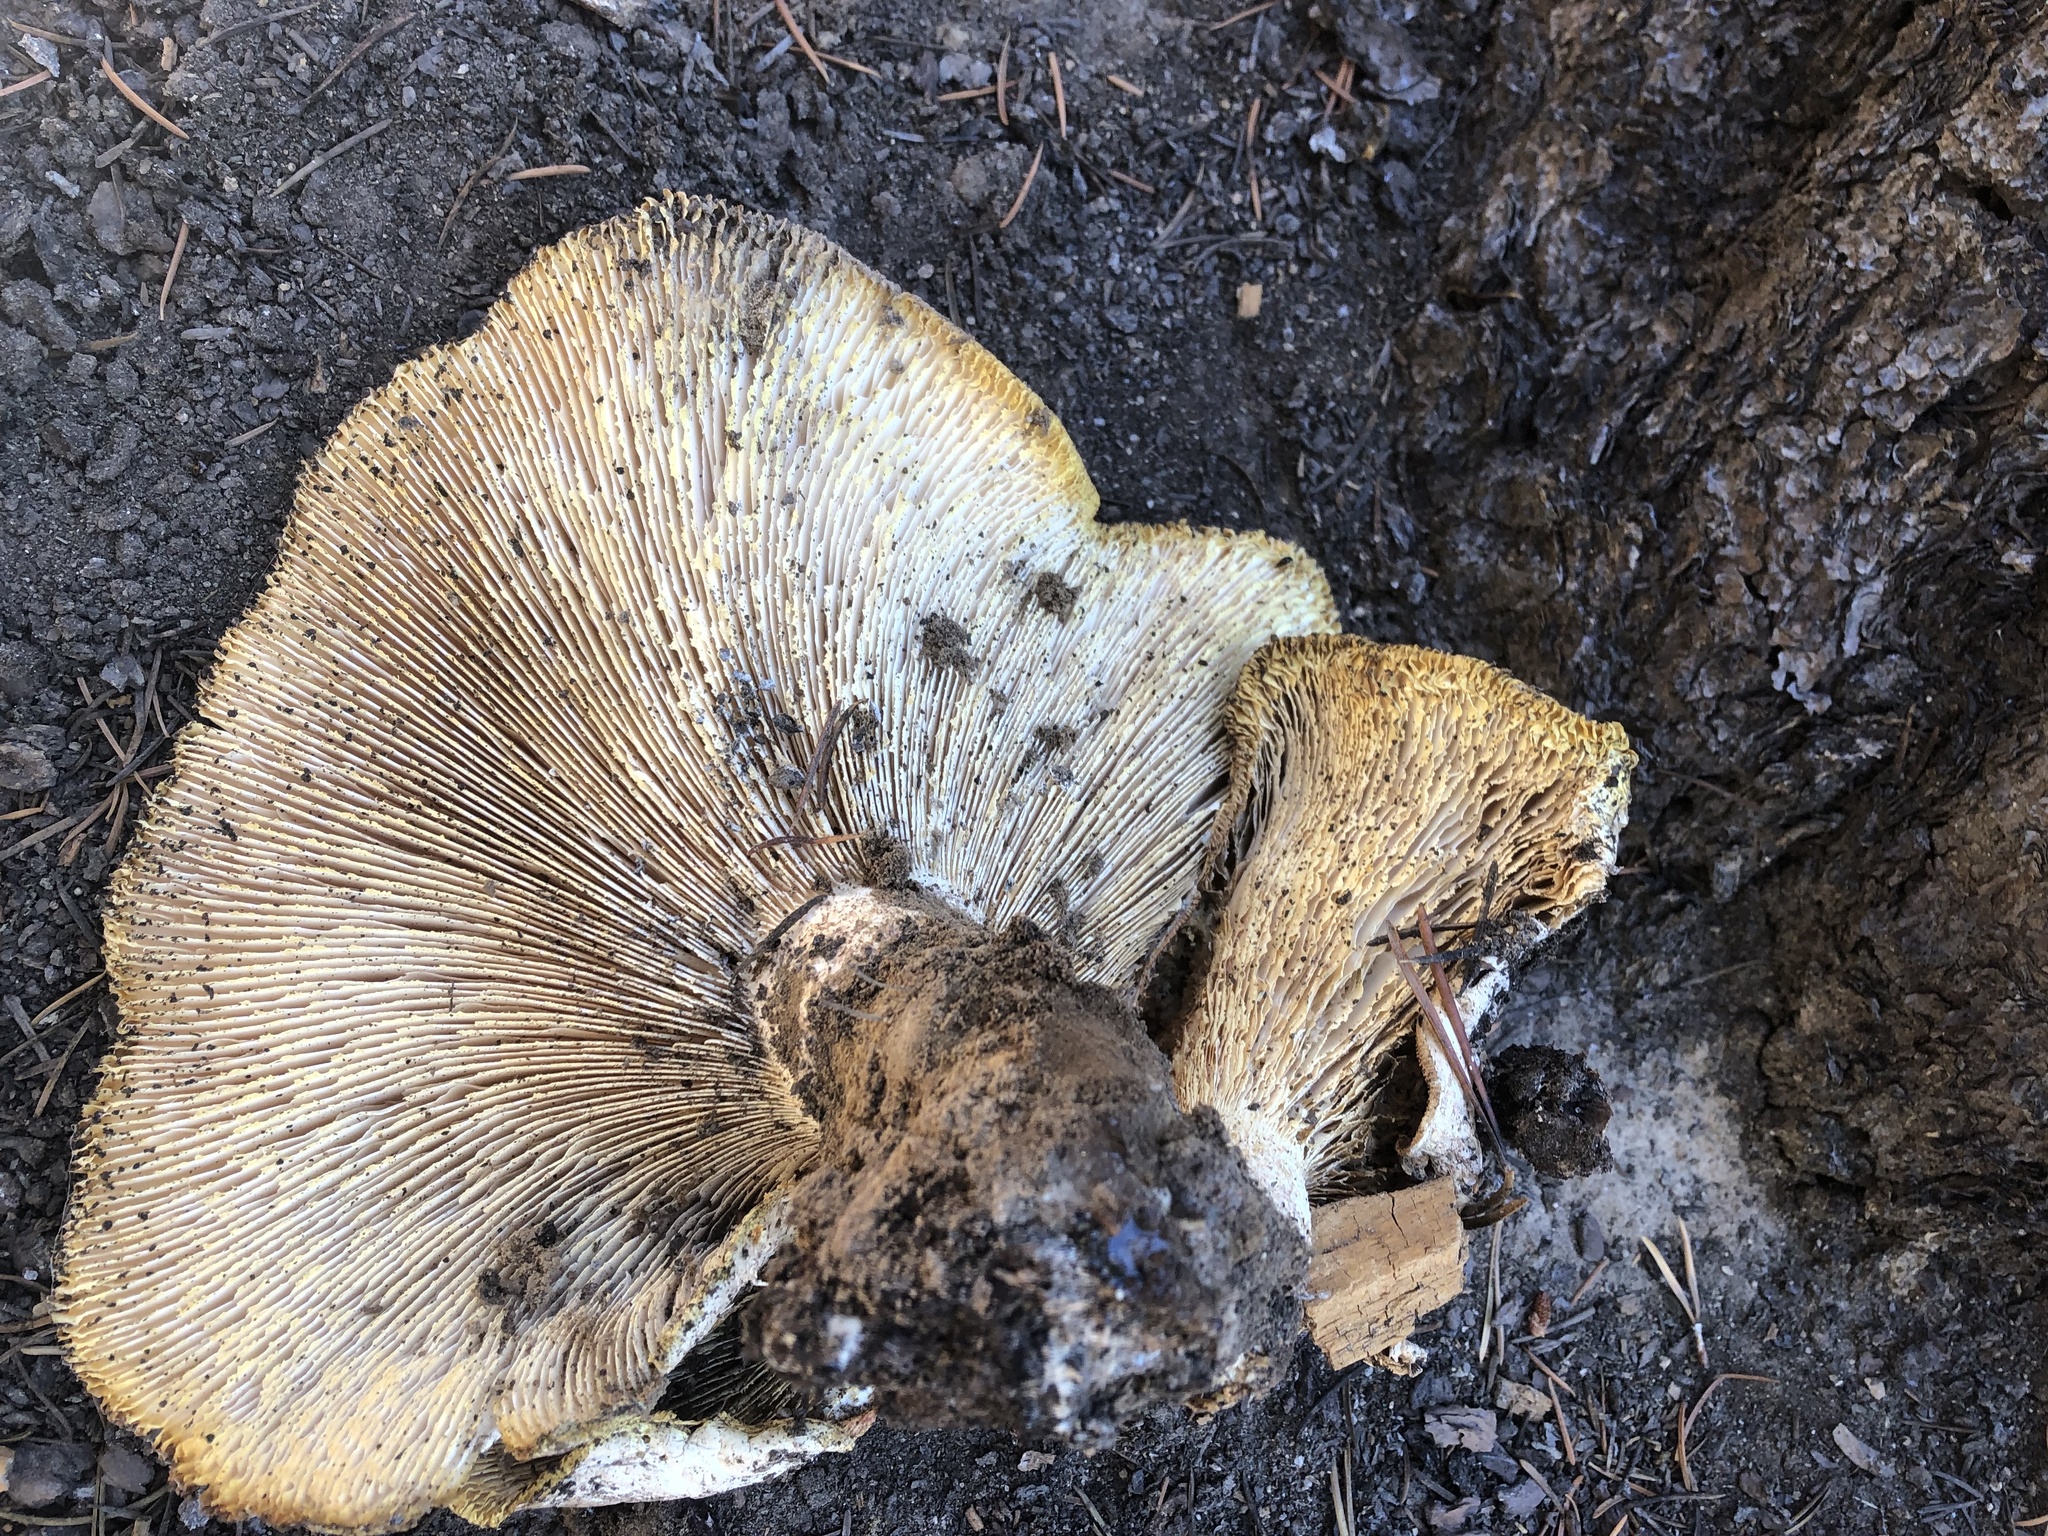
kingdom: Fungi
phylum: Basidiomycota
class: Agaricomycetes
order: Gloeophyllales
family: Gloeophyllaceae
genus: Neolentinus
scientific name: Neolentinus ponderosus
